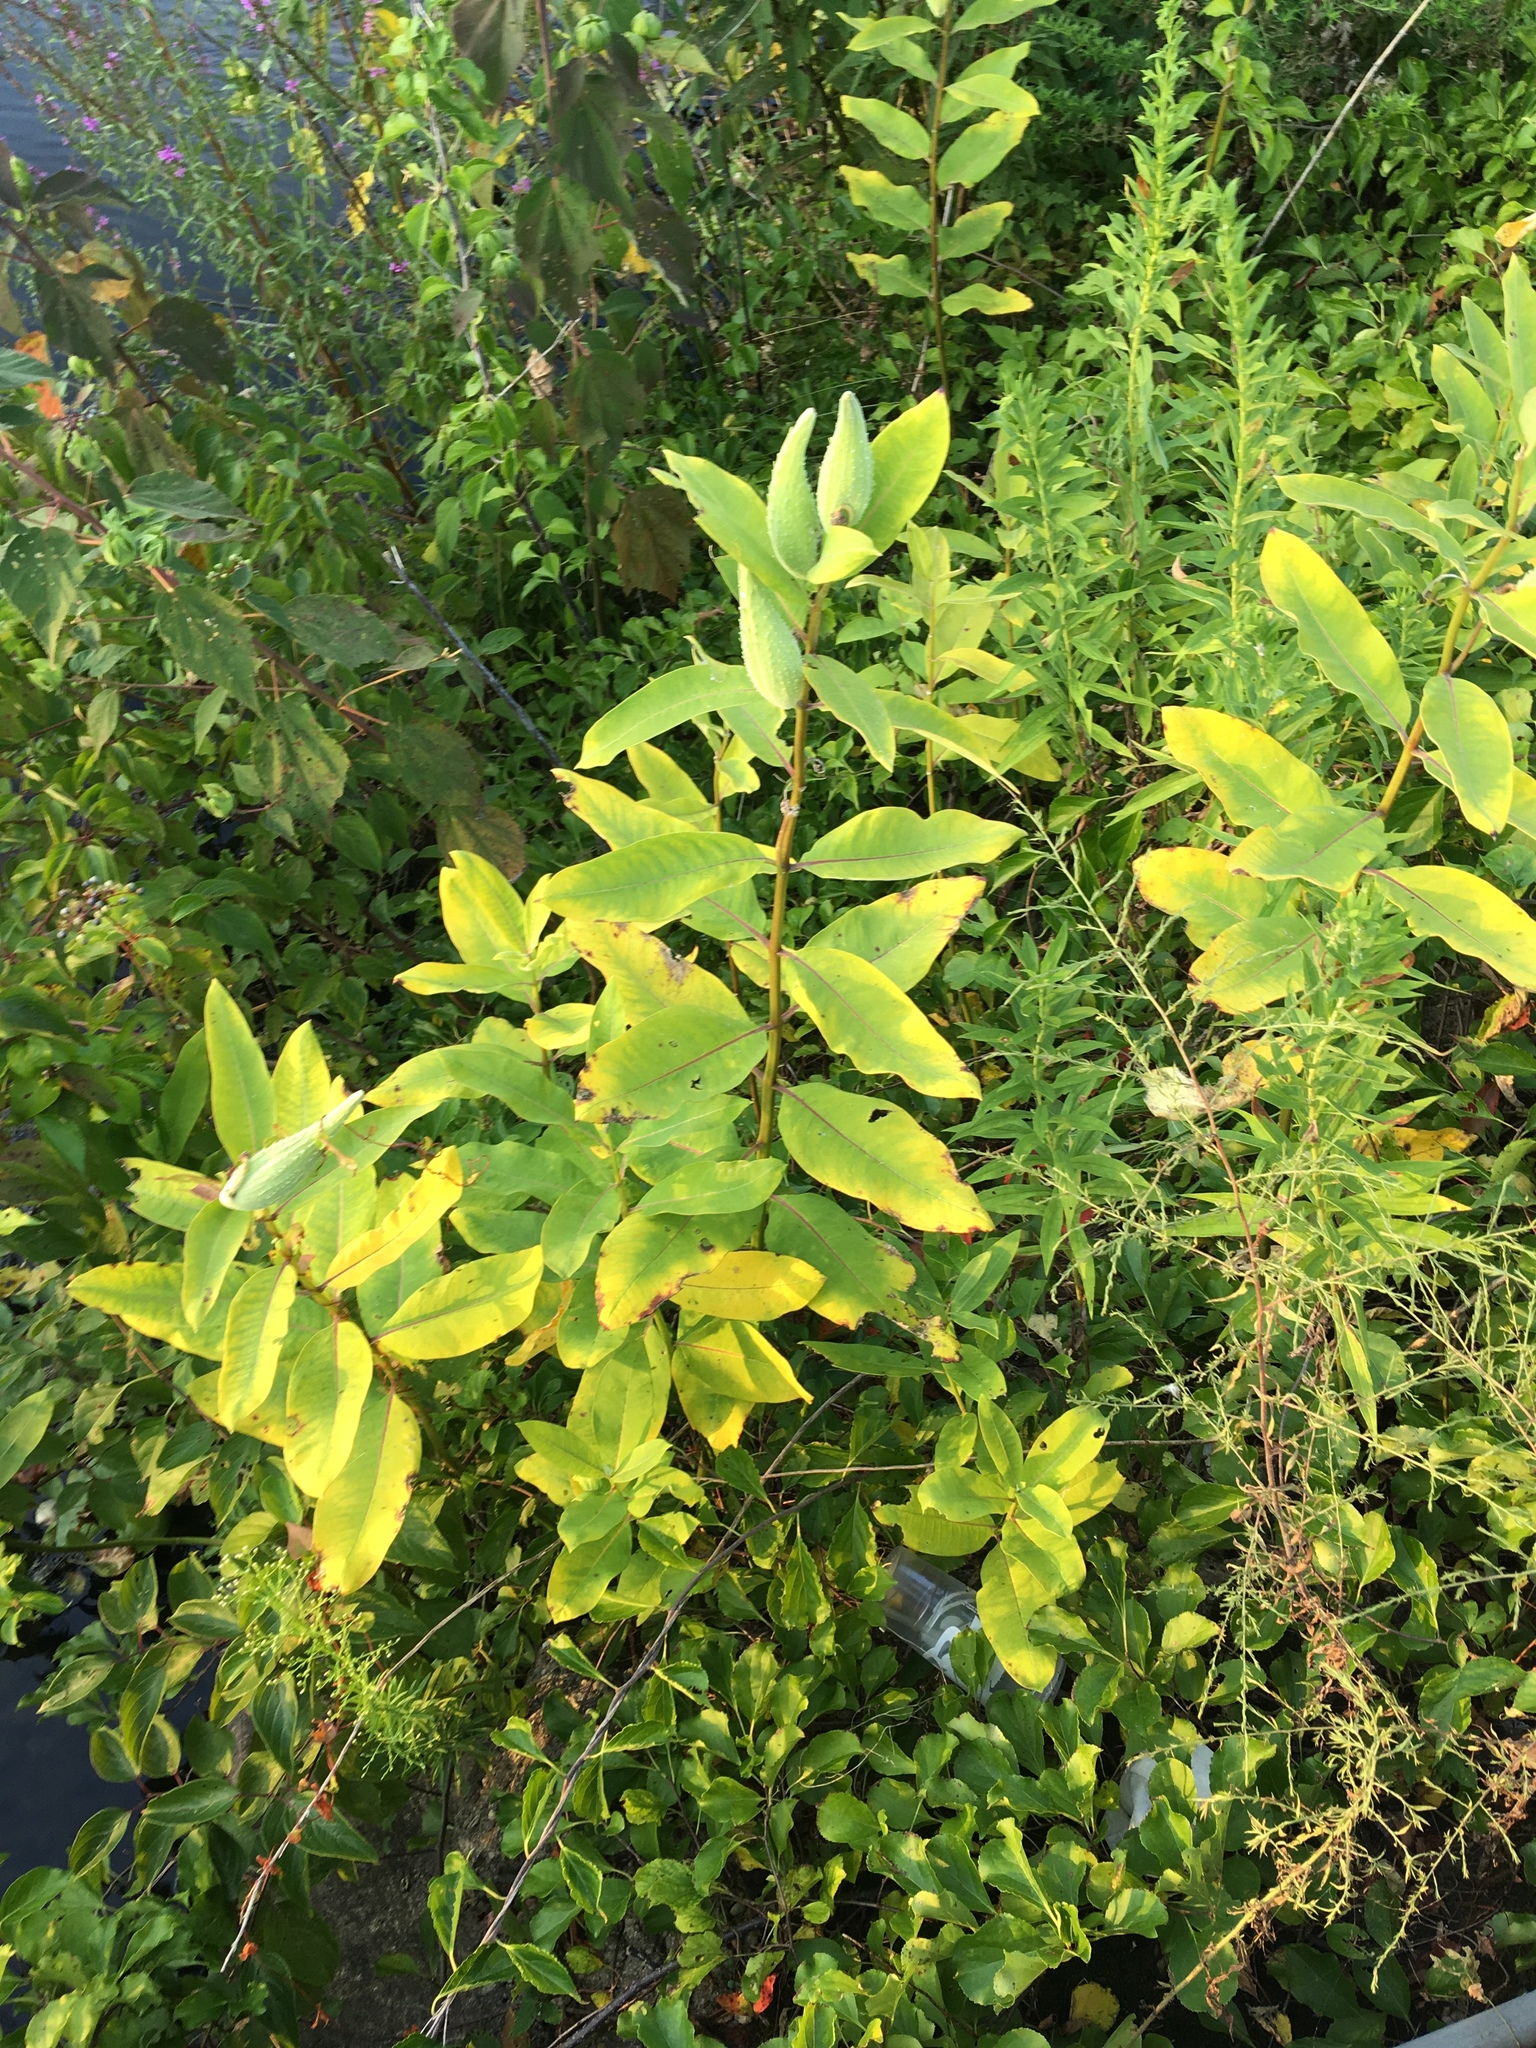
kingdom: Plantae
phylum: Tracheophyta
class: Magnoliopsida
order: Gentianales
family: Apocynaceae
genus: Asclepias
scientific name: Asclepias syriaca
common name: Common milkweed
